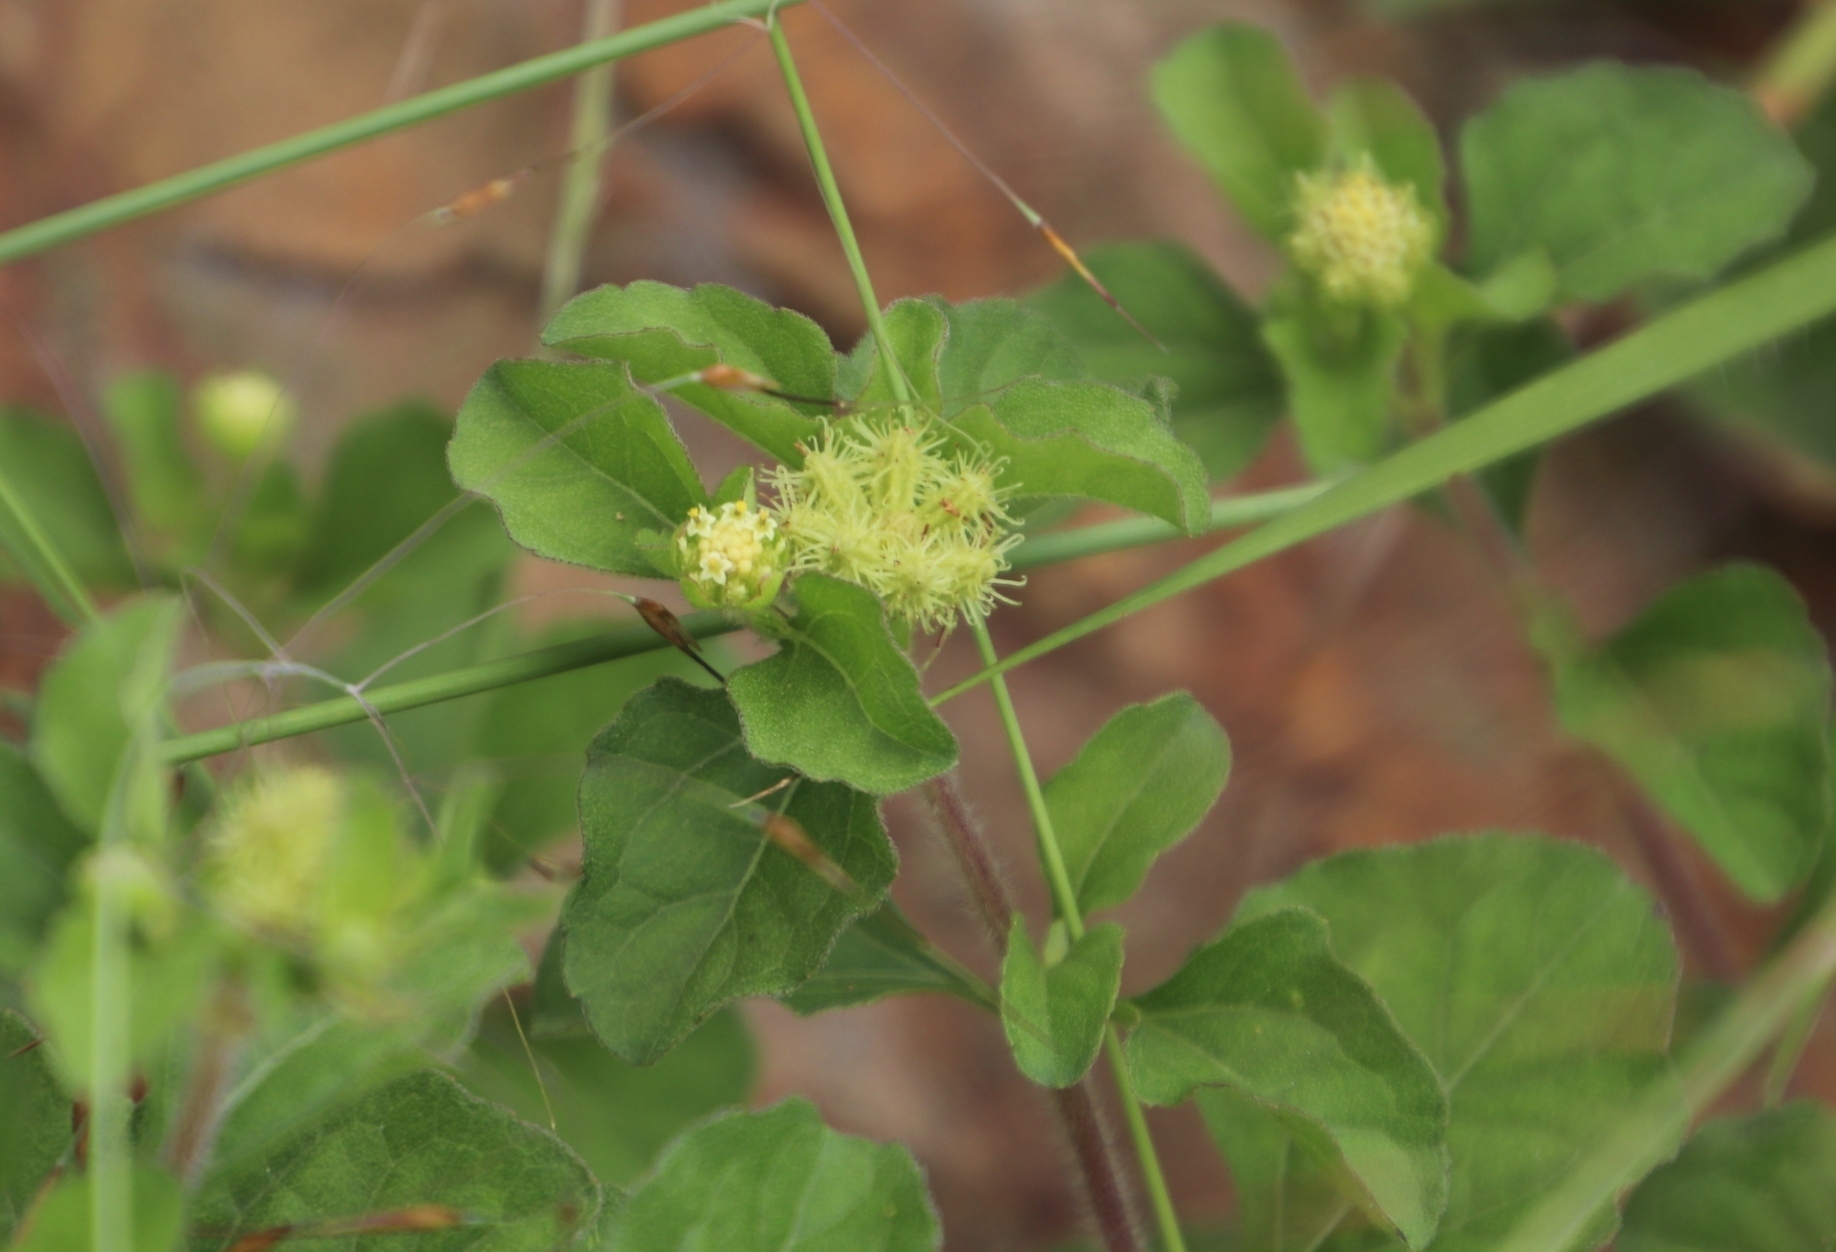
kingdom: Plantae
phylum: Tracheophyta
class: Magnoliopsida
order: Asterales
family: Asteraceae
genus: Acanthospermum
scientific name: Acanthospermum australe
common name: Paraguayan starbur
